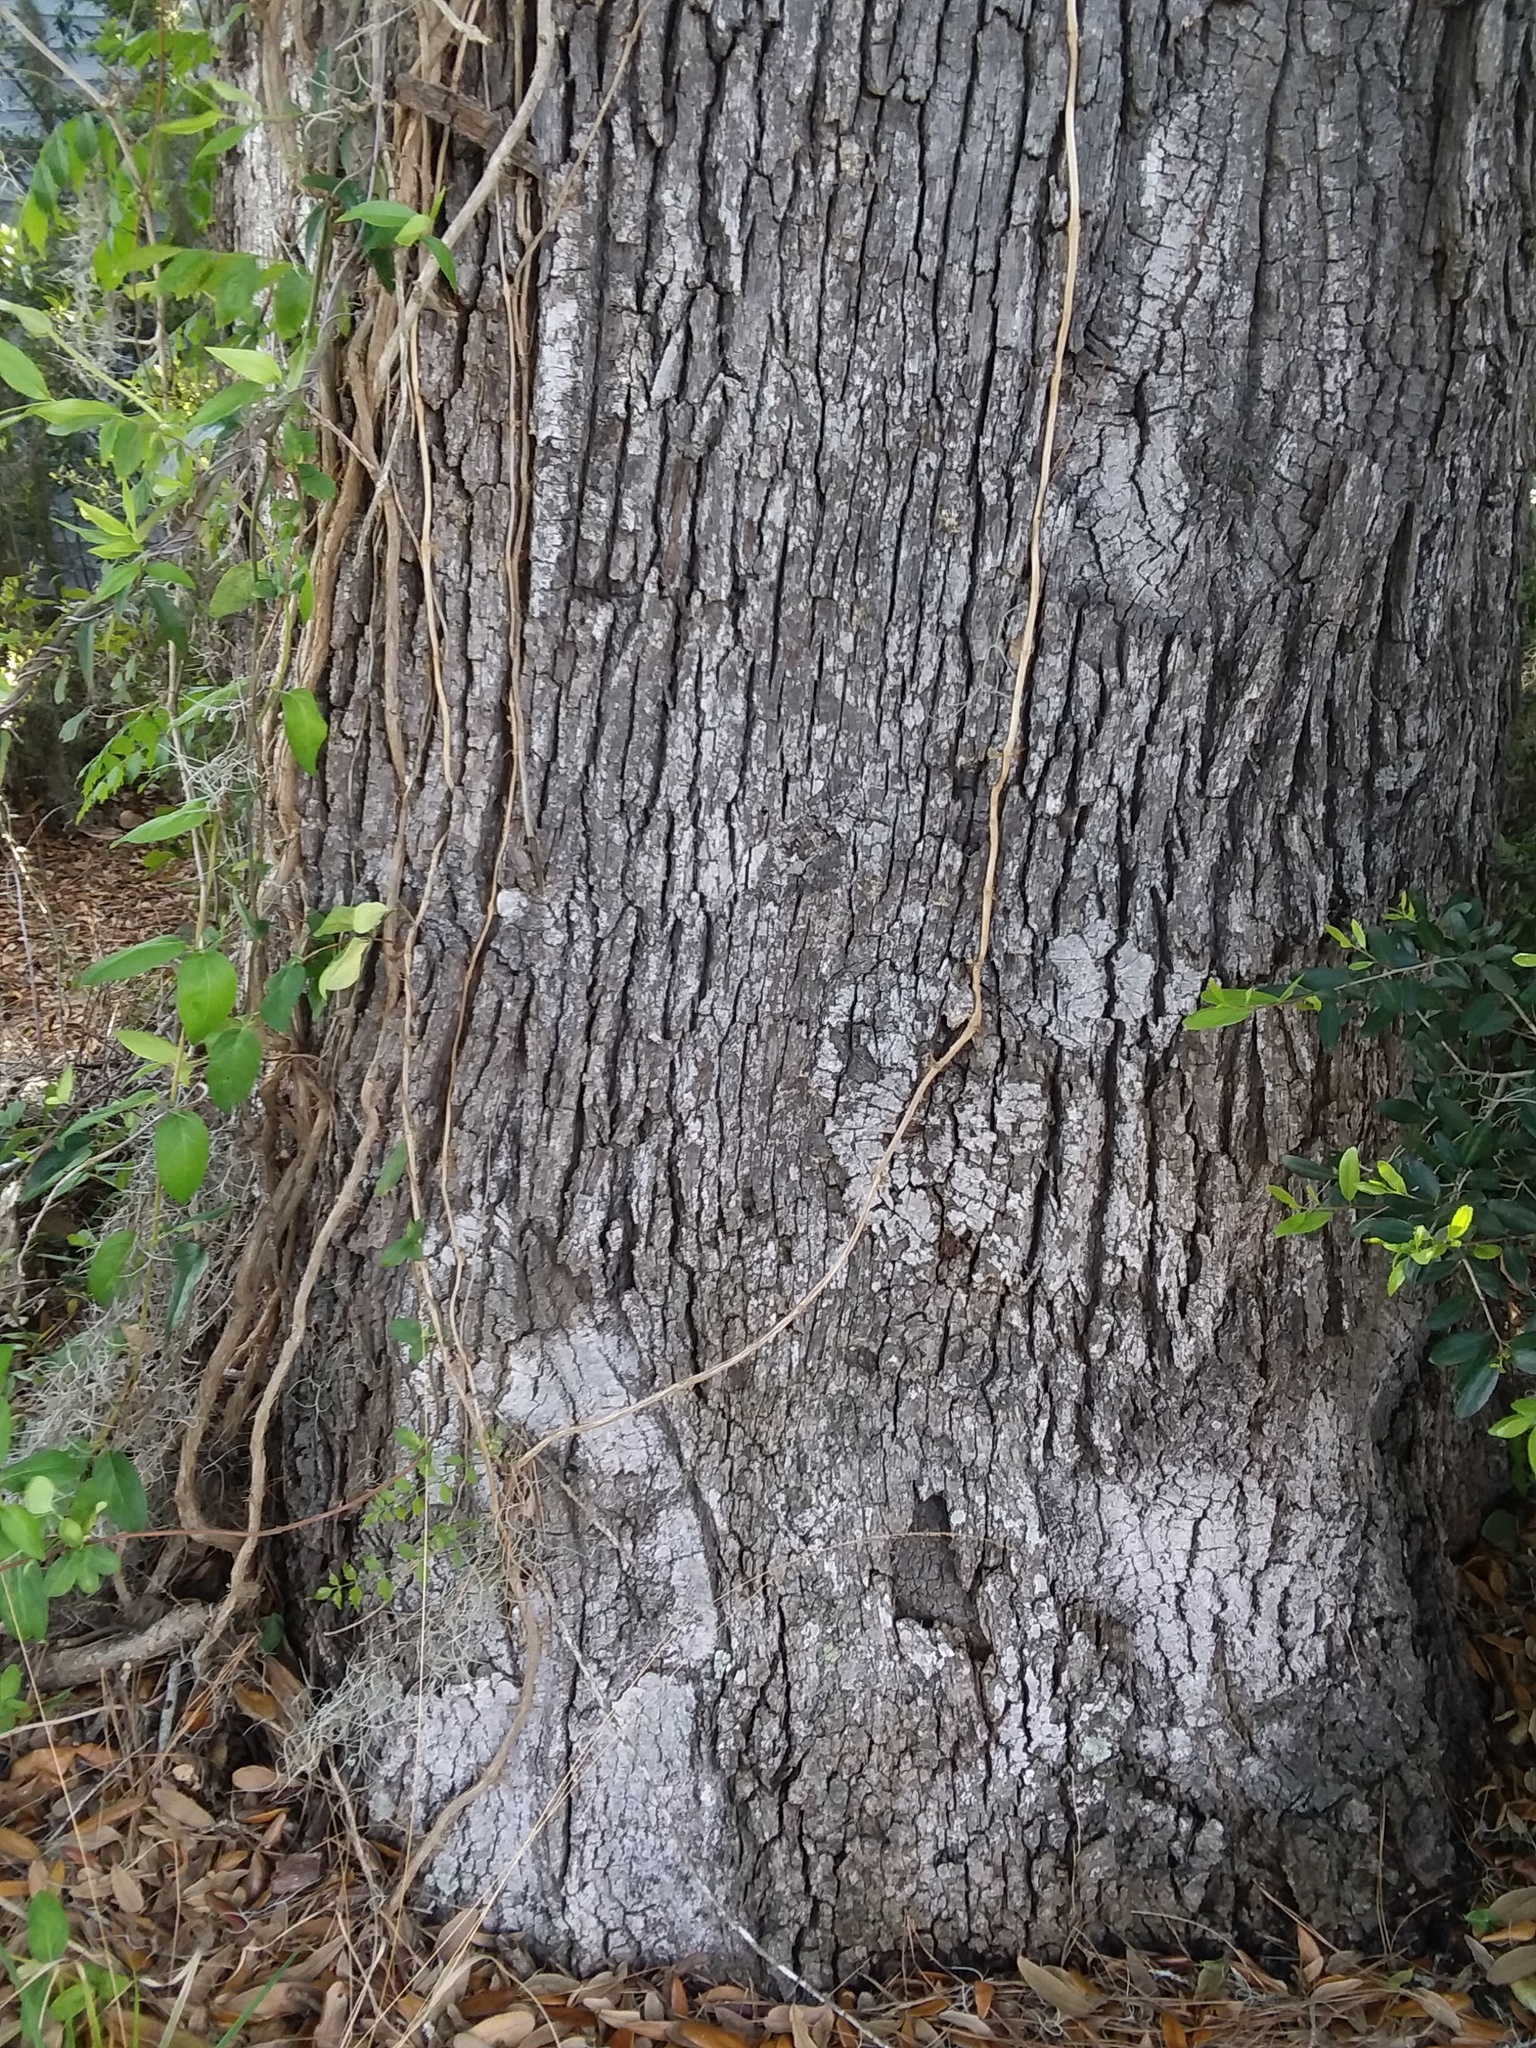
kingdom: Plantae
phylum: Tracheophyta
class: Magnoliopsida
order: Fagales
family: Fagaceae
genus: Quercus
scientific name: Quercus virginiana
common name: Southern live oak
